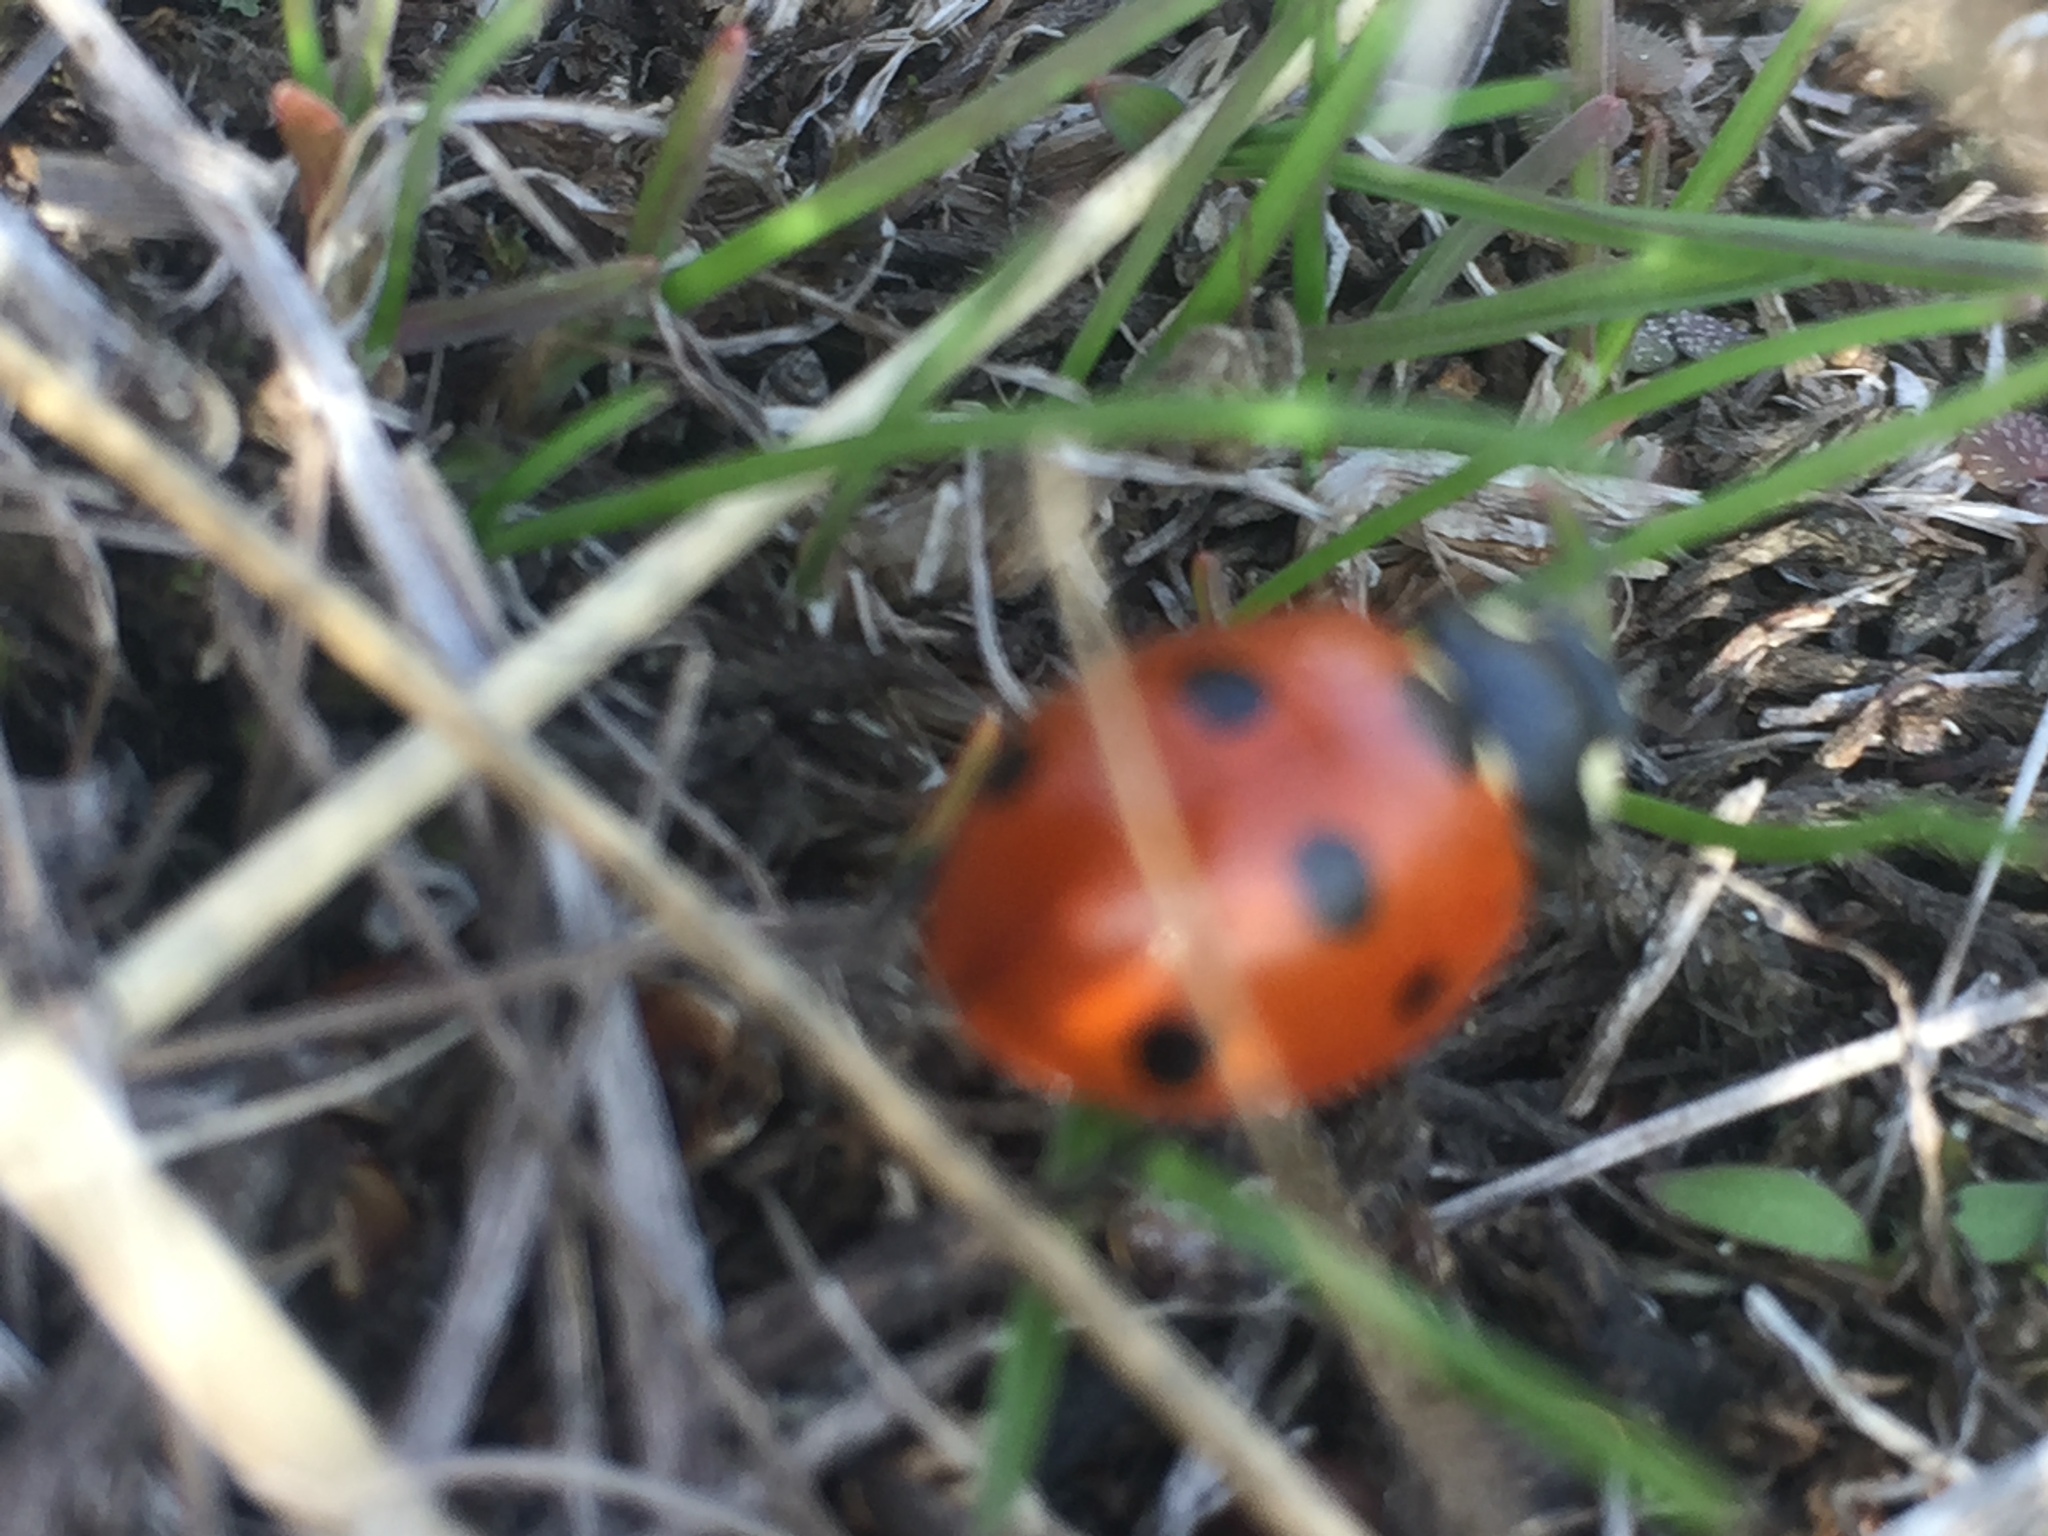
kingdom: Animalia
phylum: Arthropoda
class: Insecta
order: Coleoptera
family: Coccinellidae
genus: Coccinella
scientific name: Coccinella septempunctata
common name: Sevenspotted lady beetle
